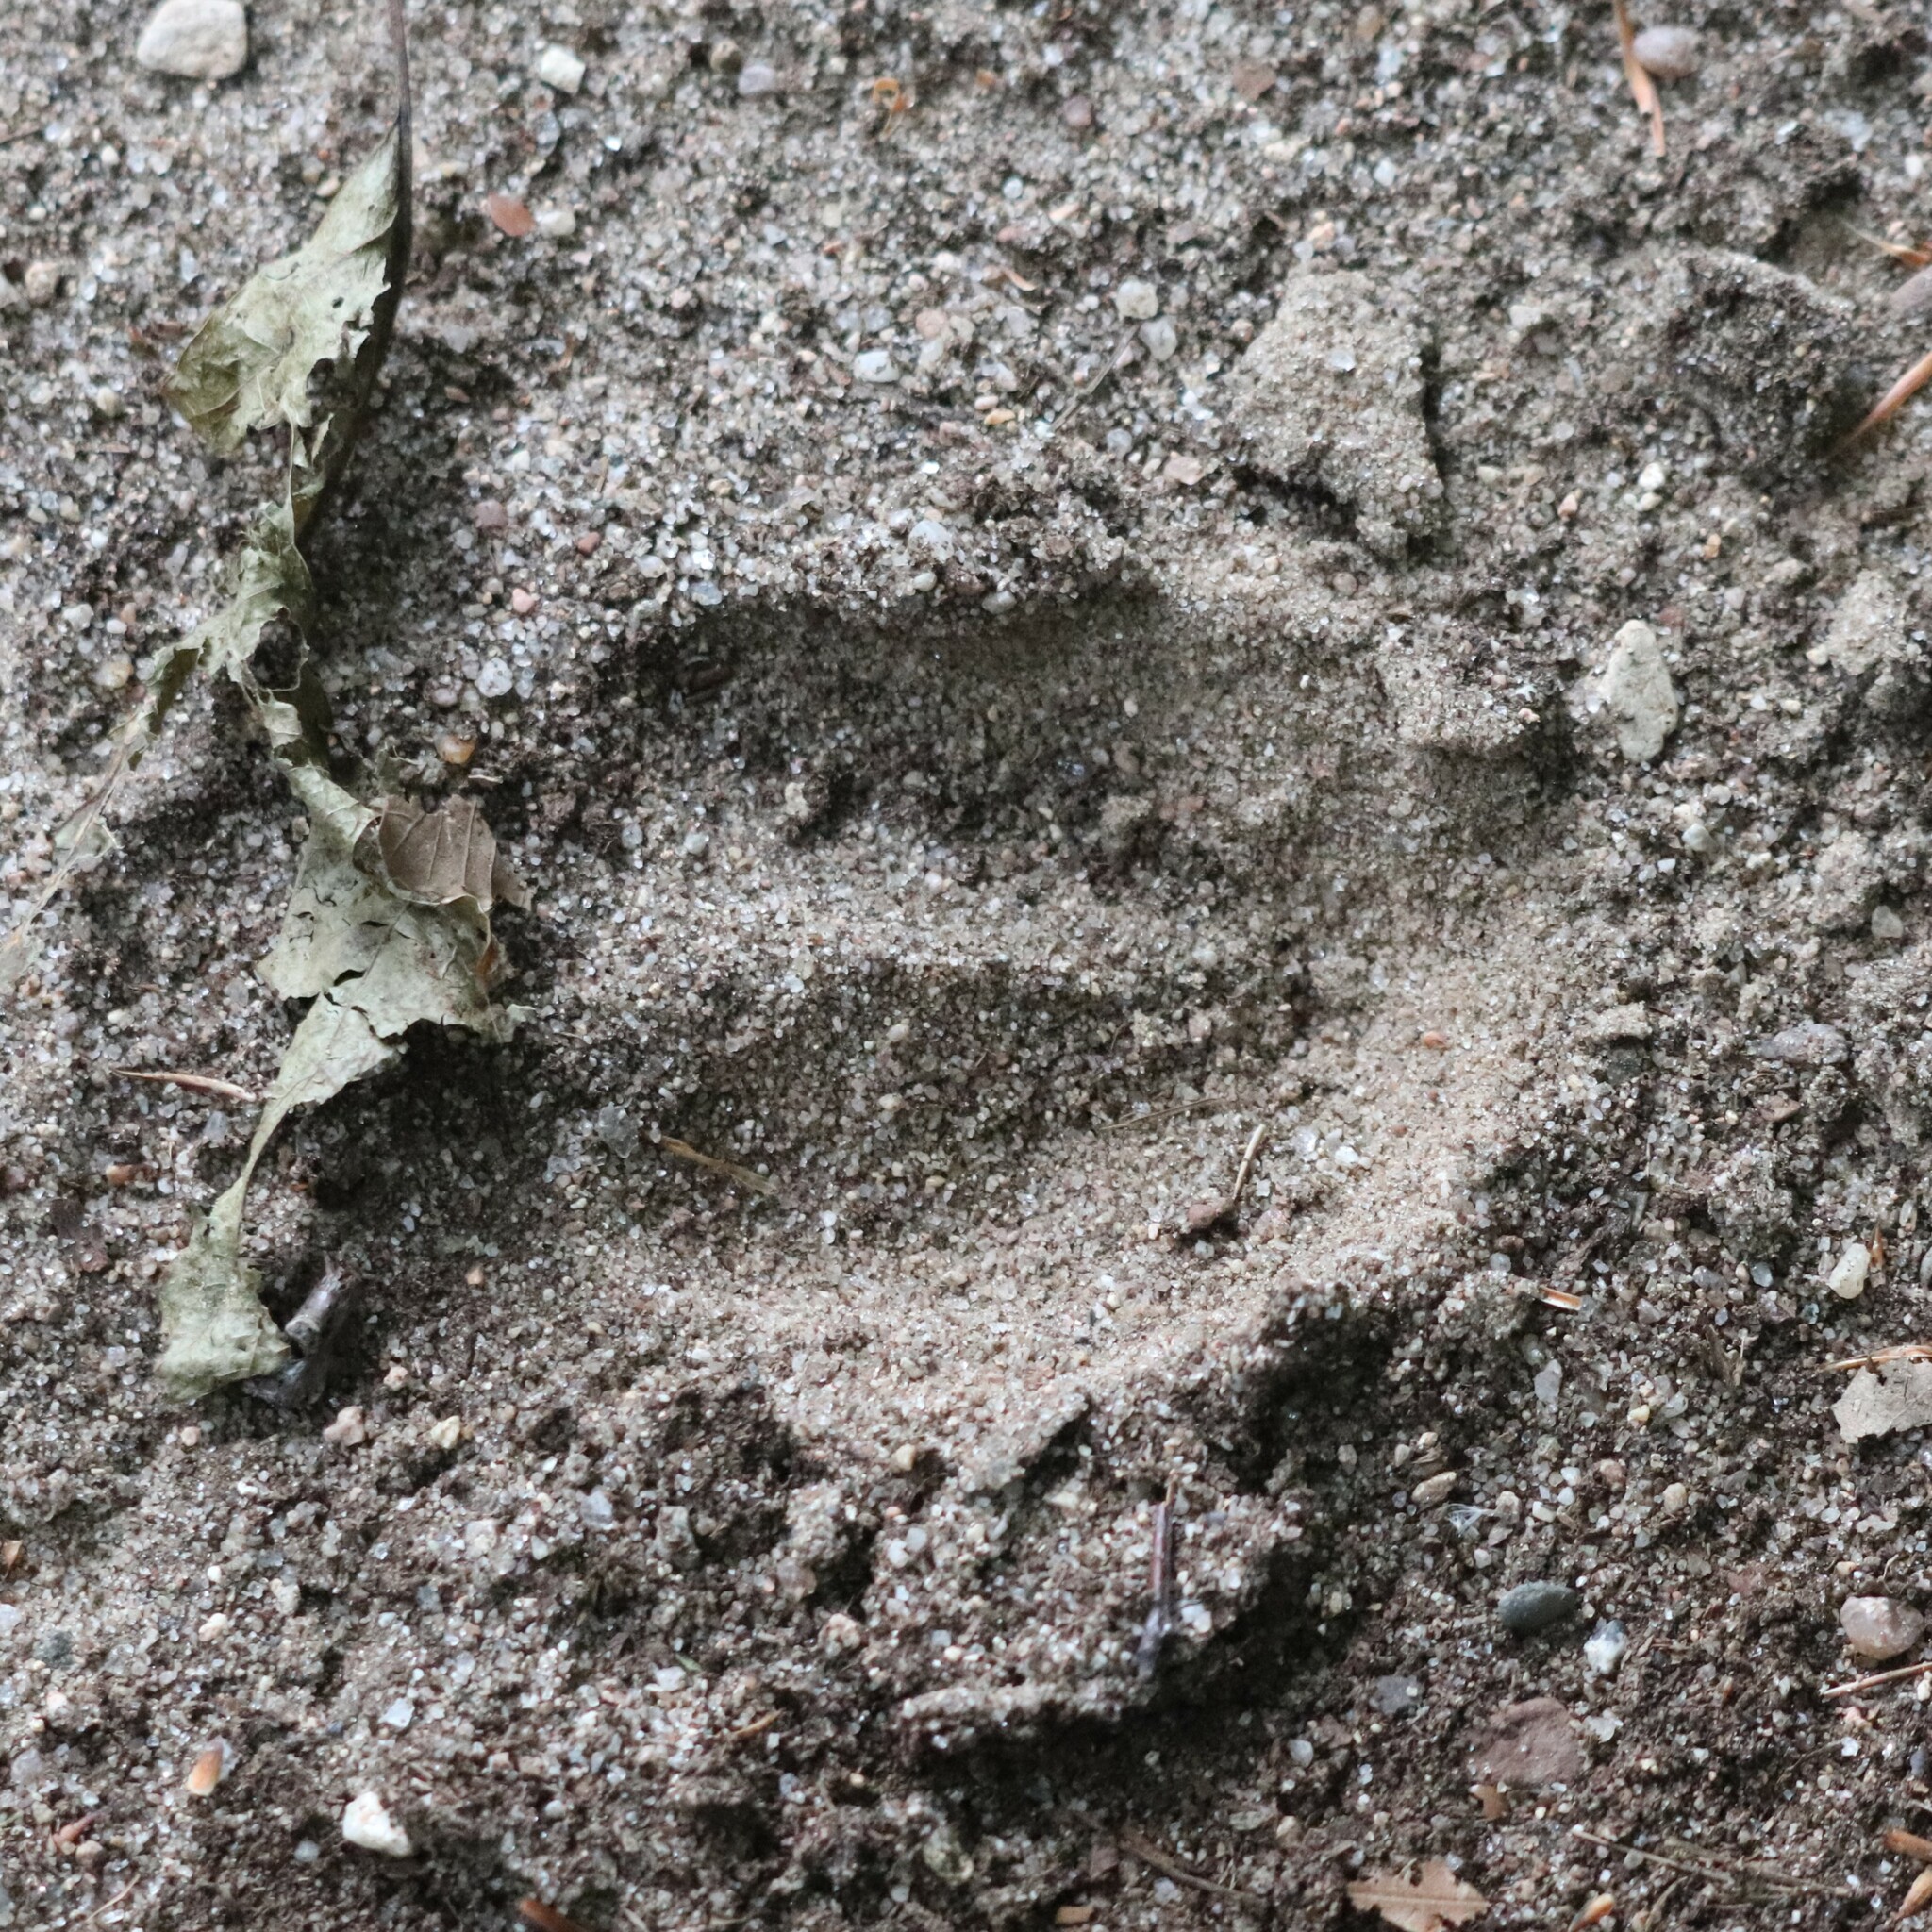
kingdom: Animalia
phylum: Chordata
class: Mammalia
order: Artiodactyla
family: Cervidae
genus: Odocoileus
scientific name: Odocoileus virginianus
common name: White-tailed deer
